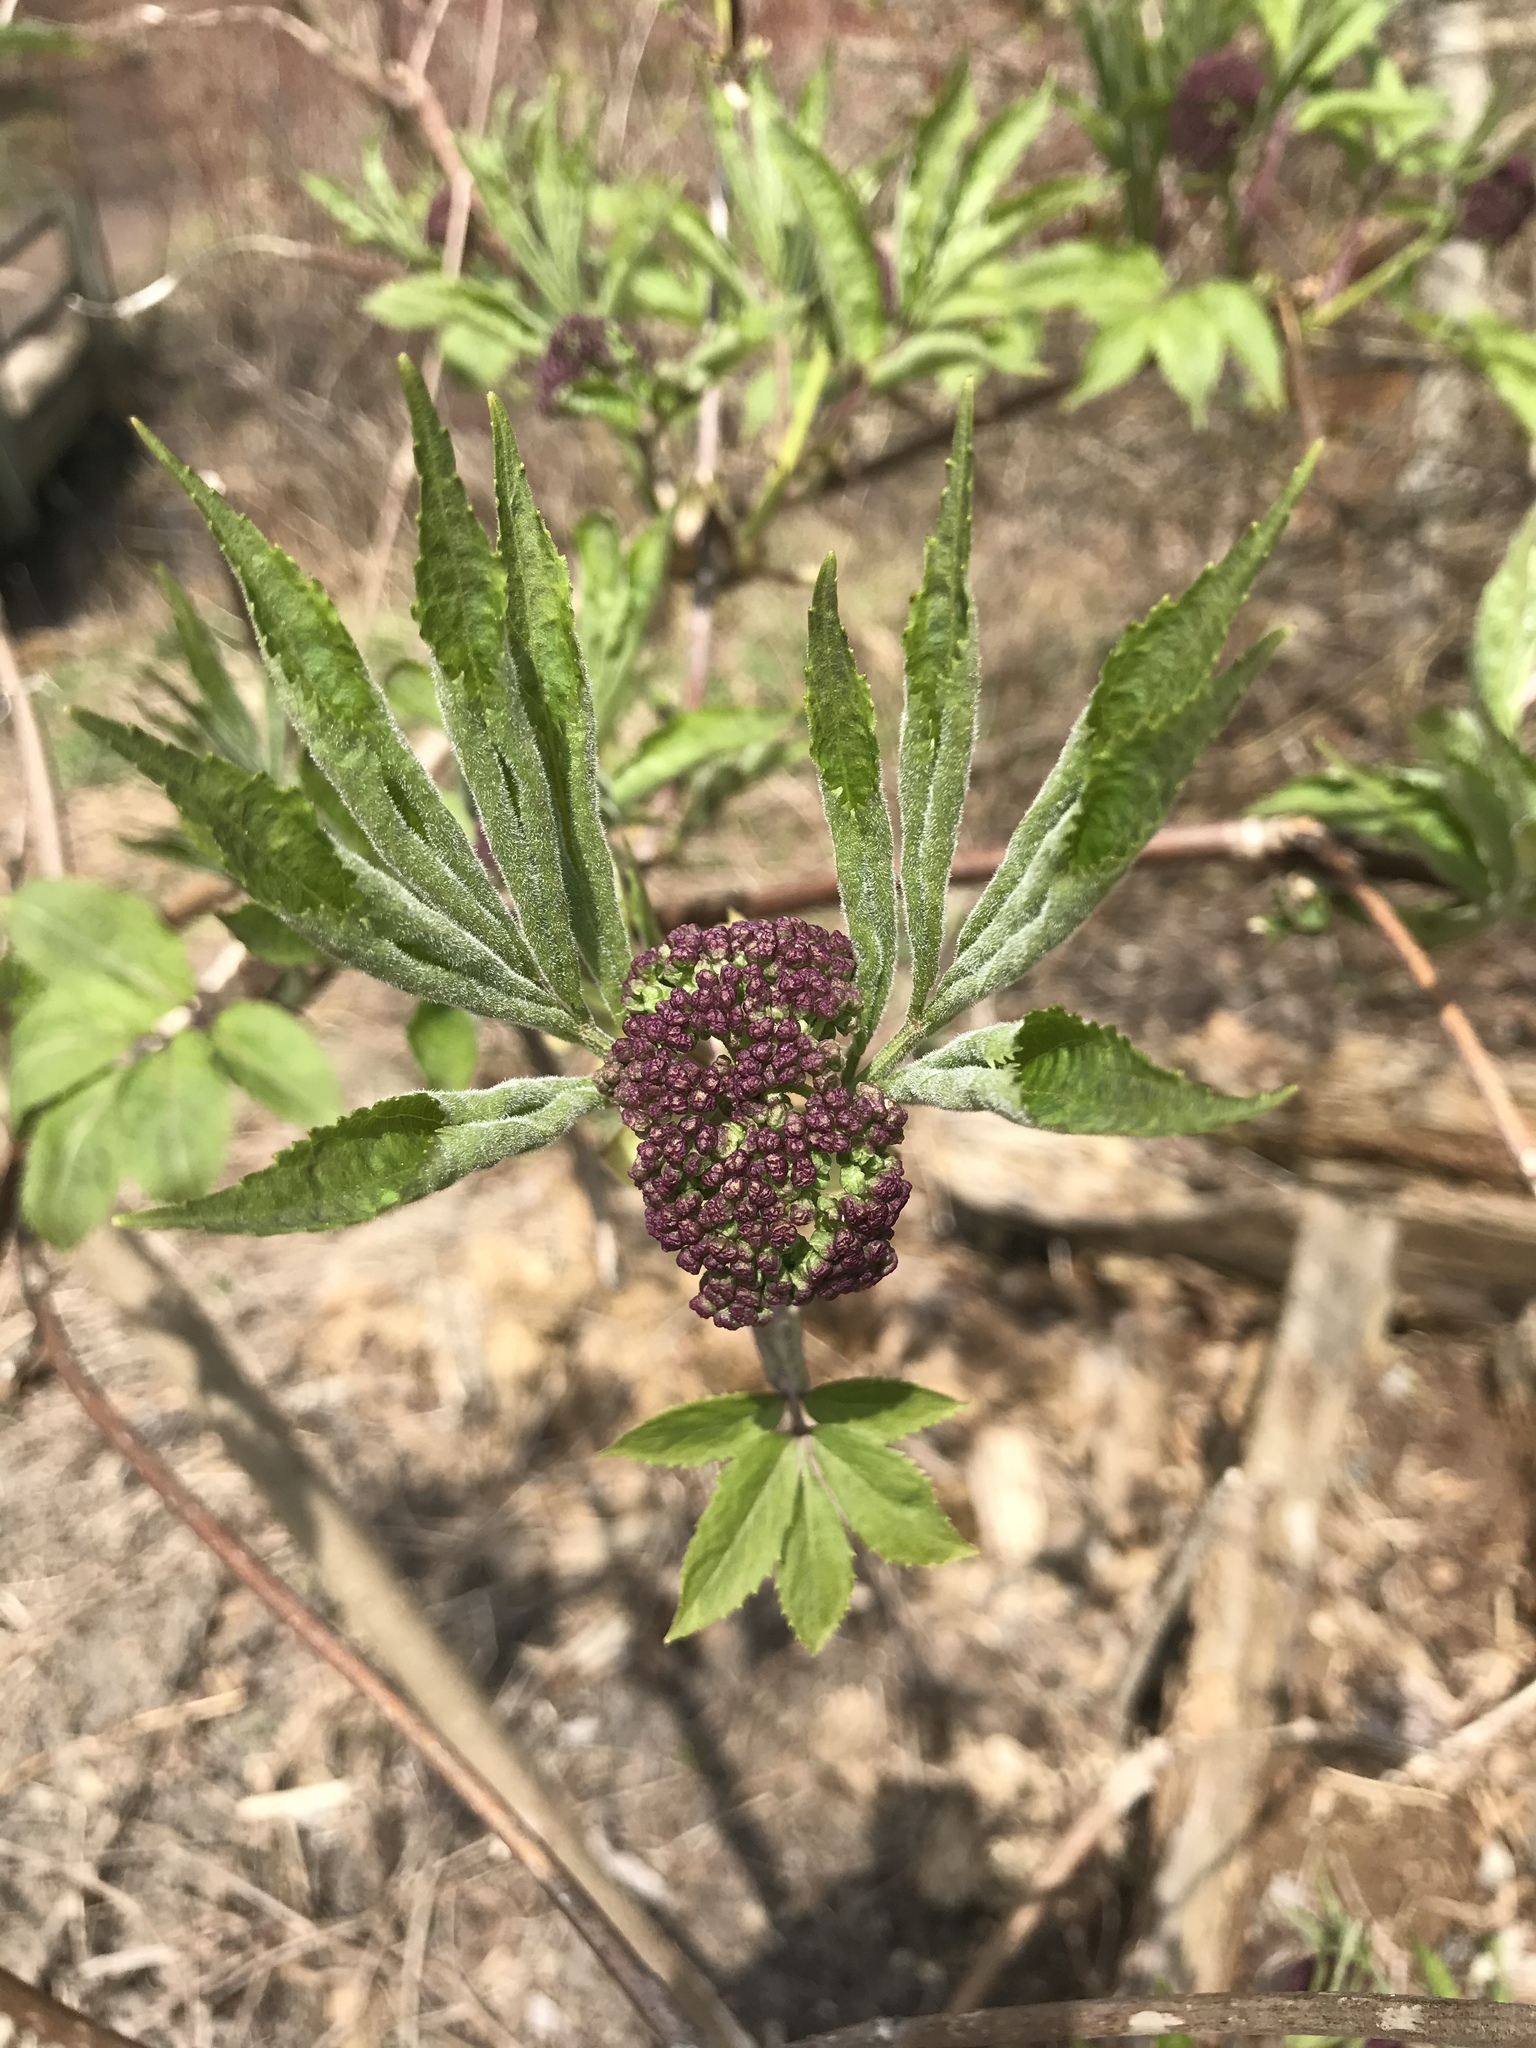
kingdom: Plantae
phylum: Tracheophyta
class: Magnoliopsida
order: Dipsacales
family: Viburnaceae
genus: Sambucus
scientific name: Sambucus racemosa
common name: Red-berried elder
